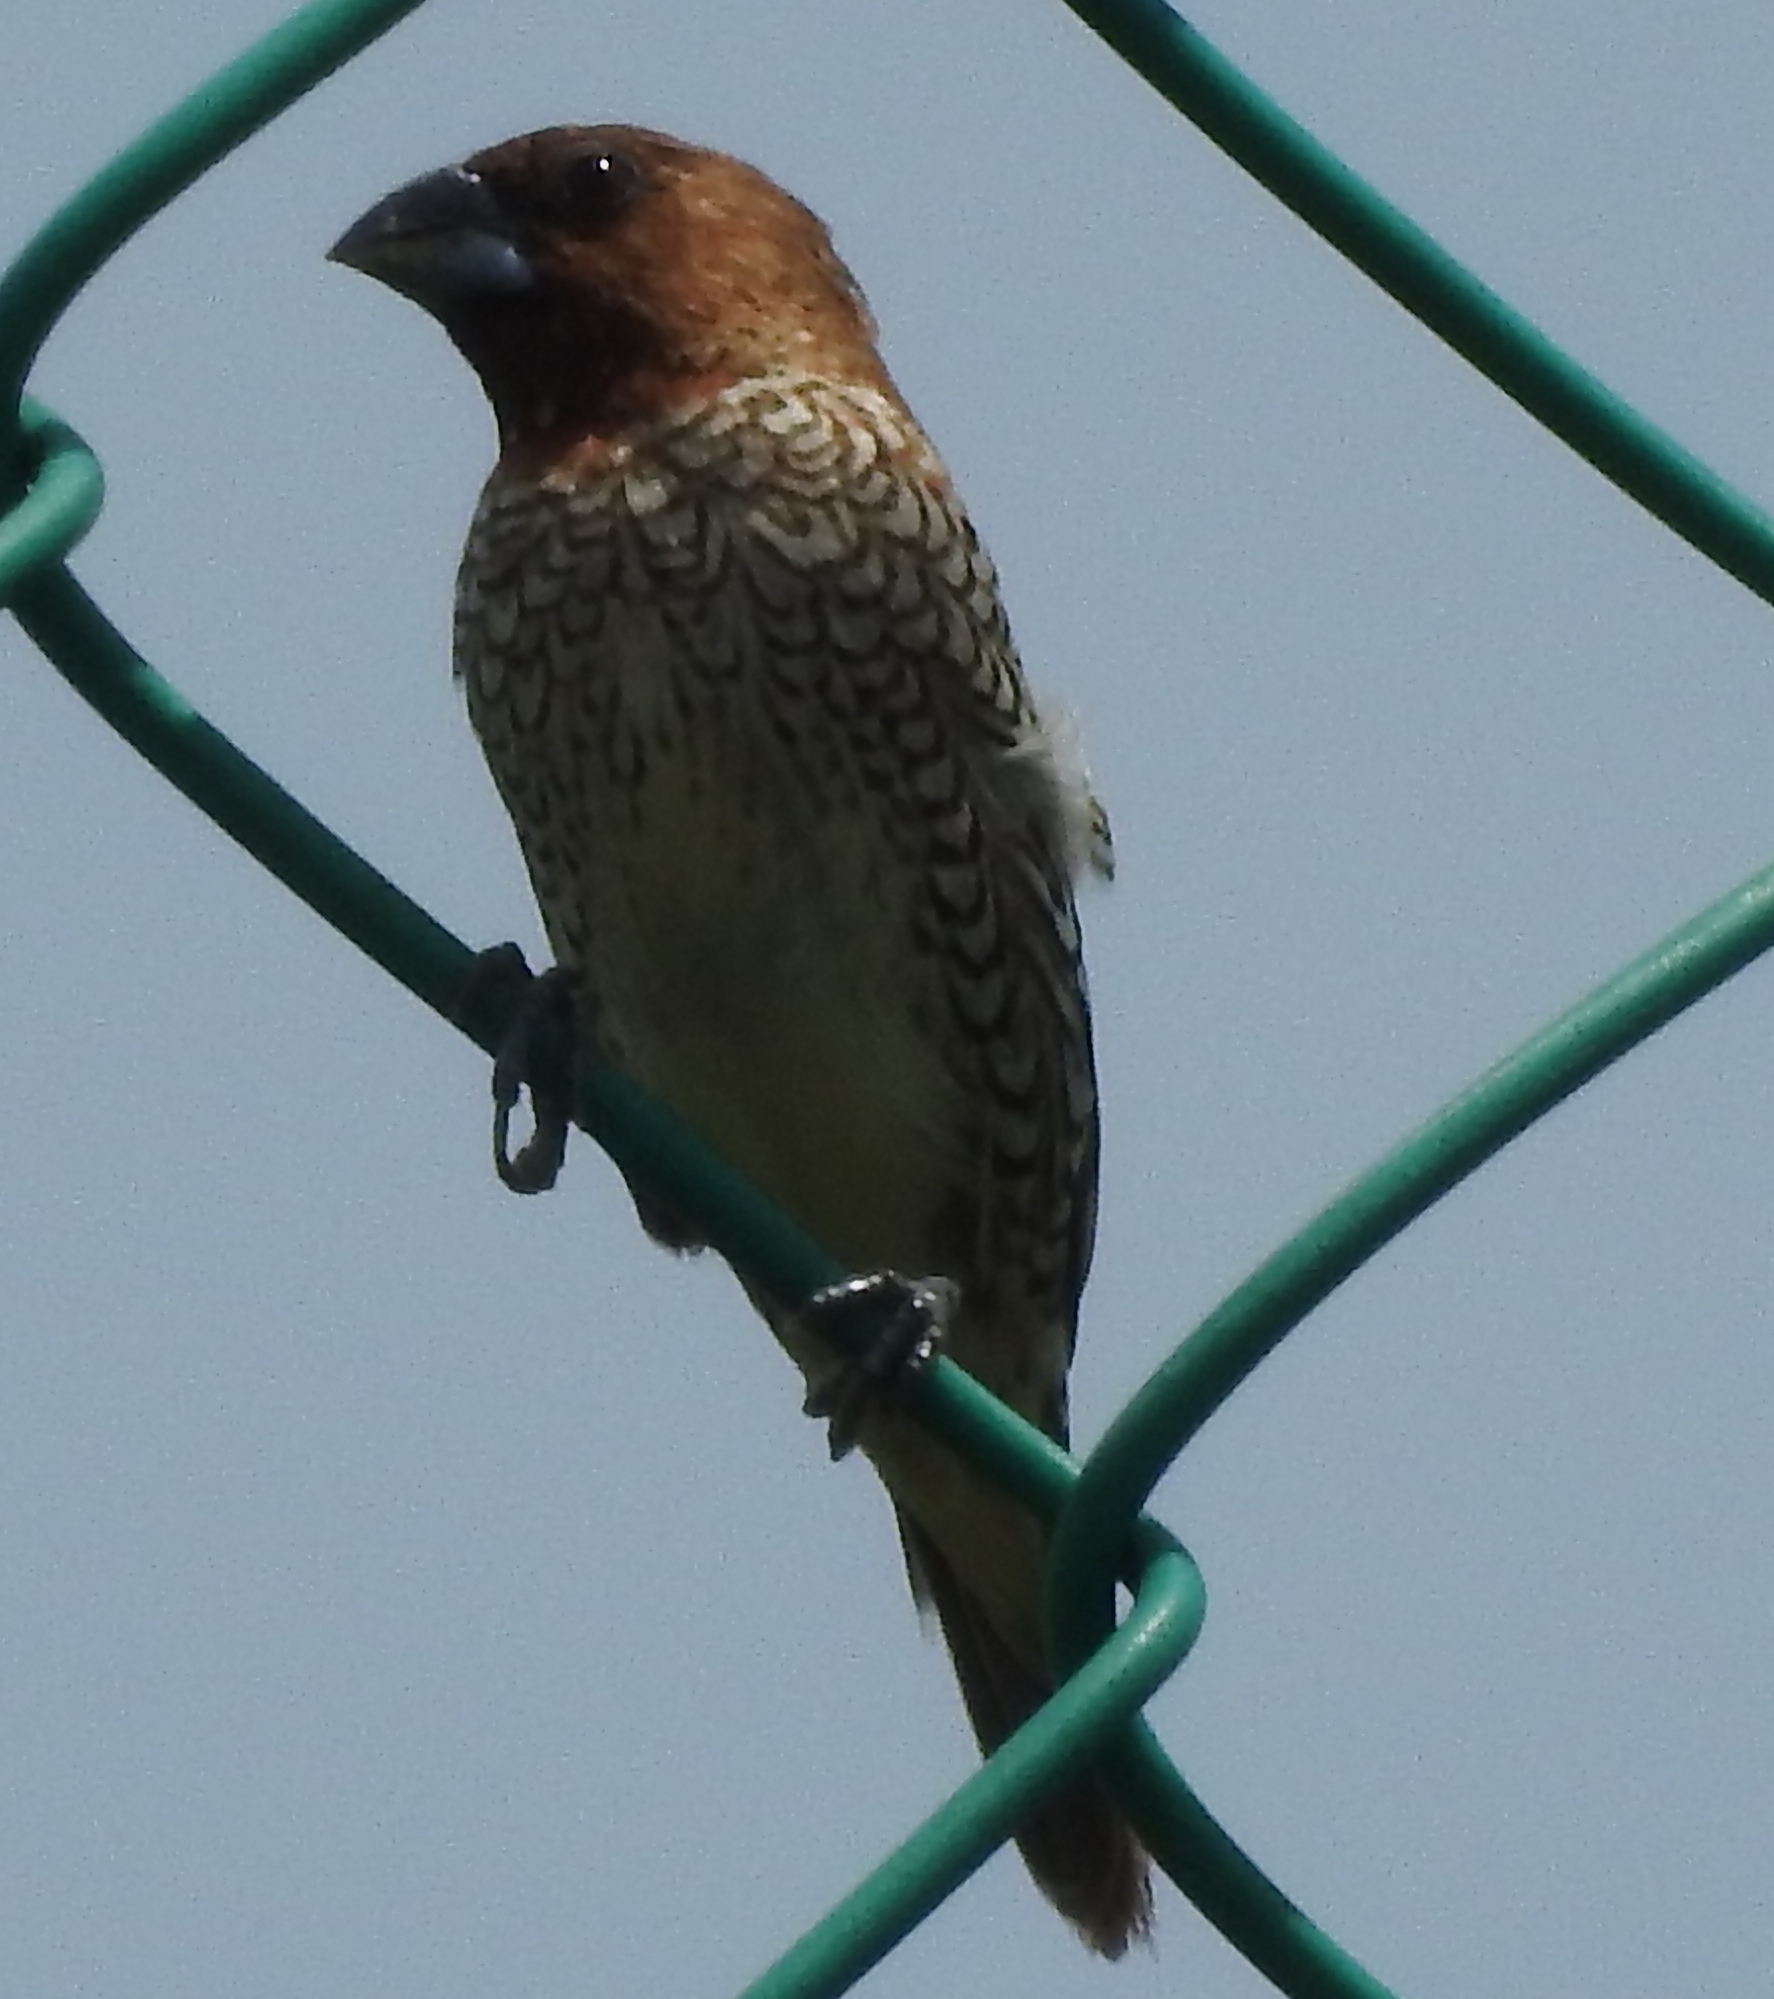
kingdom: Animalia
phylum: Chordata
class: Aves
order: Passeriformes
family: Estrildidae
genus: Lonchura
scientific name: Lonchura punctulata
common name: Scaly-breasted munia
